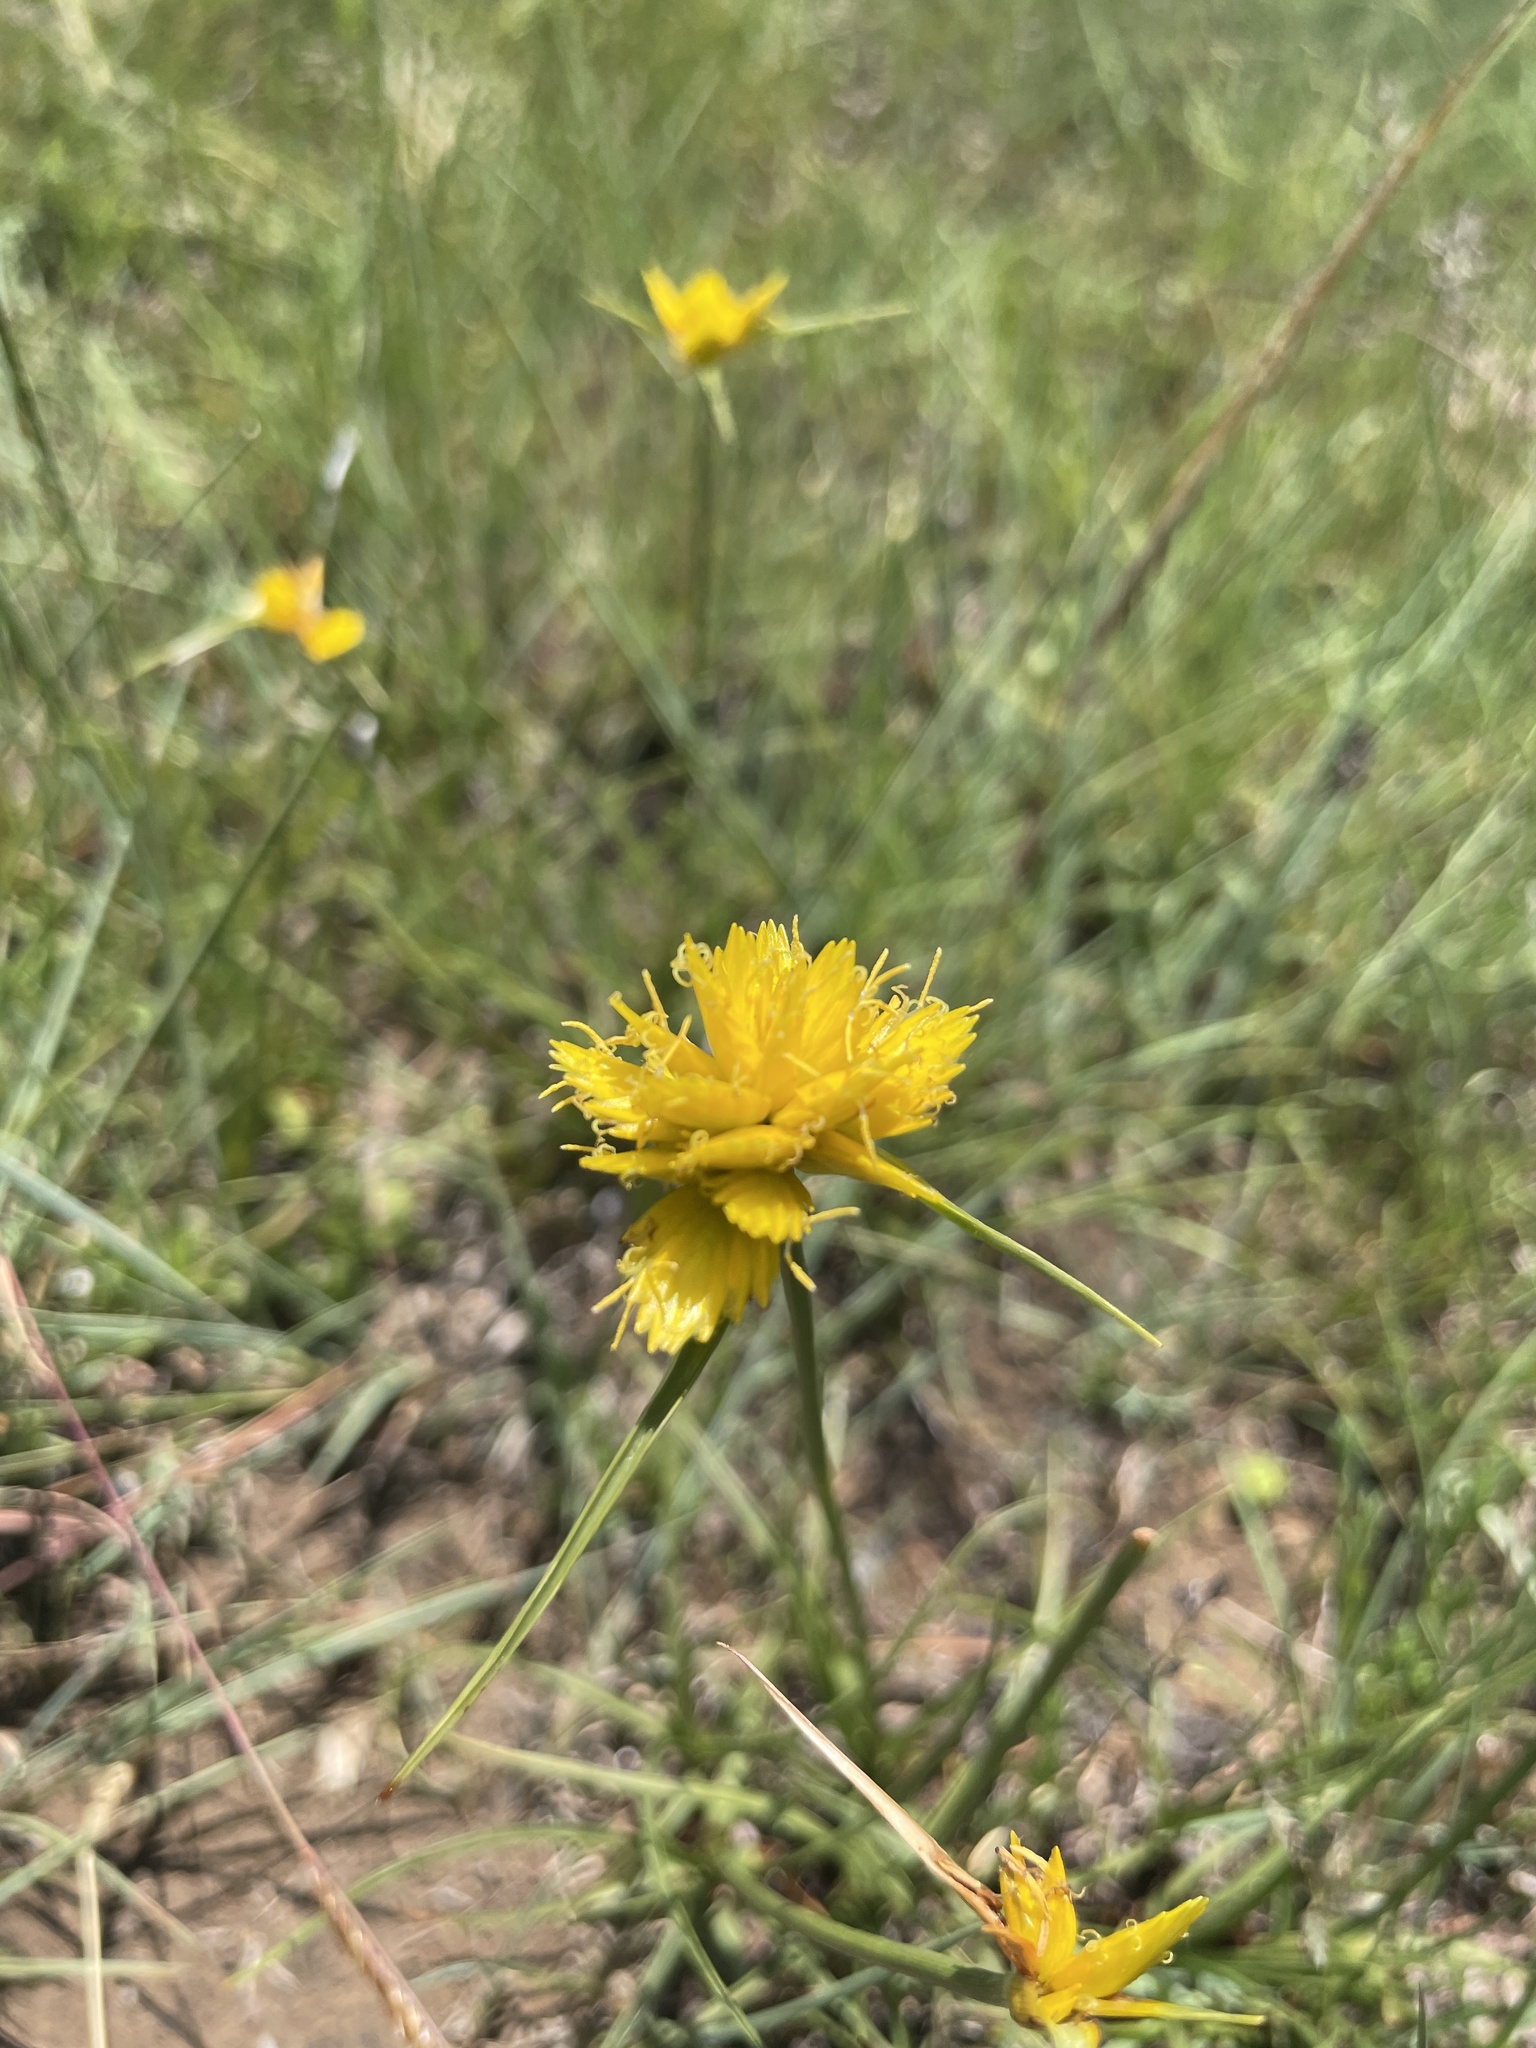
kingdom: Plantae
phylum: Tracheophyta
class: Liliopsida
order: Poales
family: Cyperaceae
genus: Cyperus
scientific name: Cyperus sphaerocephalus
